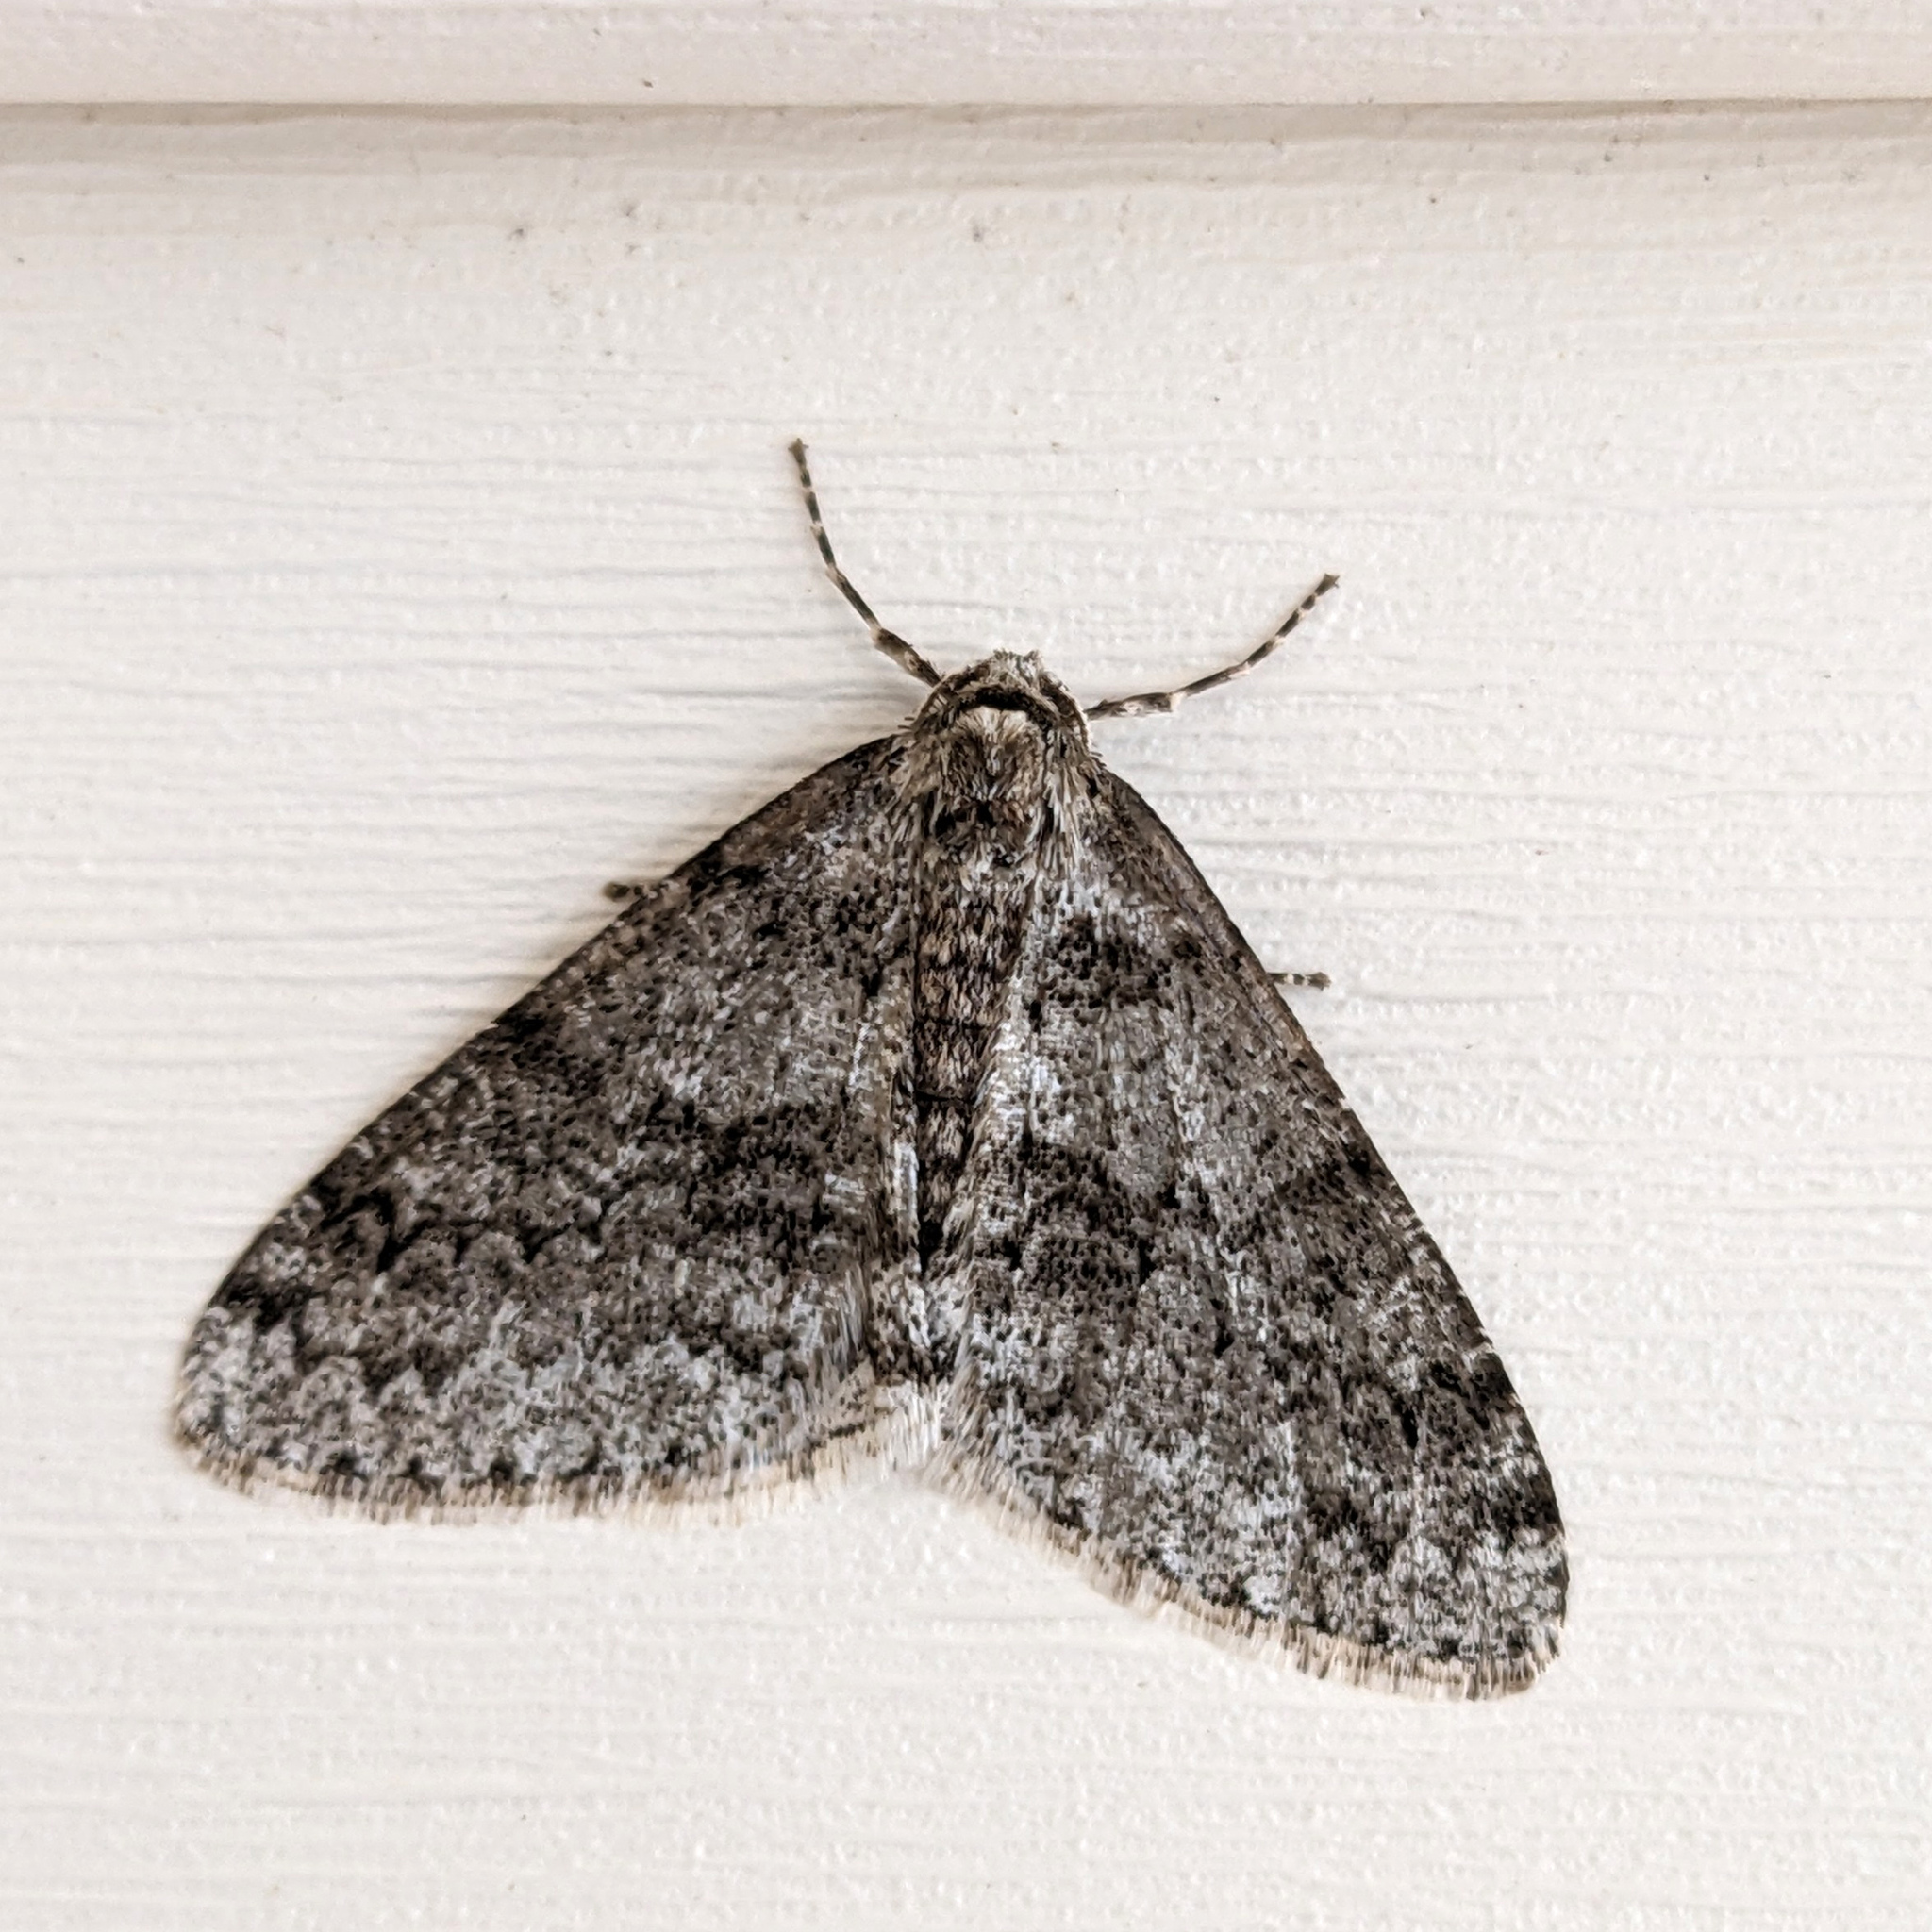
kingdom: Animalia
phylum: Arthropoda
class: Insecta
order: Lepidoptera
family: Geometridae
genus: Phigalia
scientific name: Phigalia denticulata
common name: Toothed phigalia
